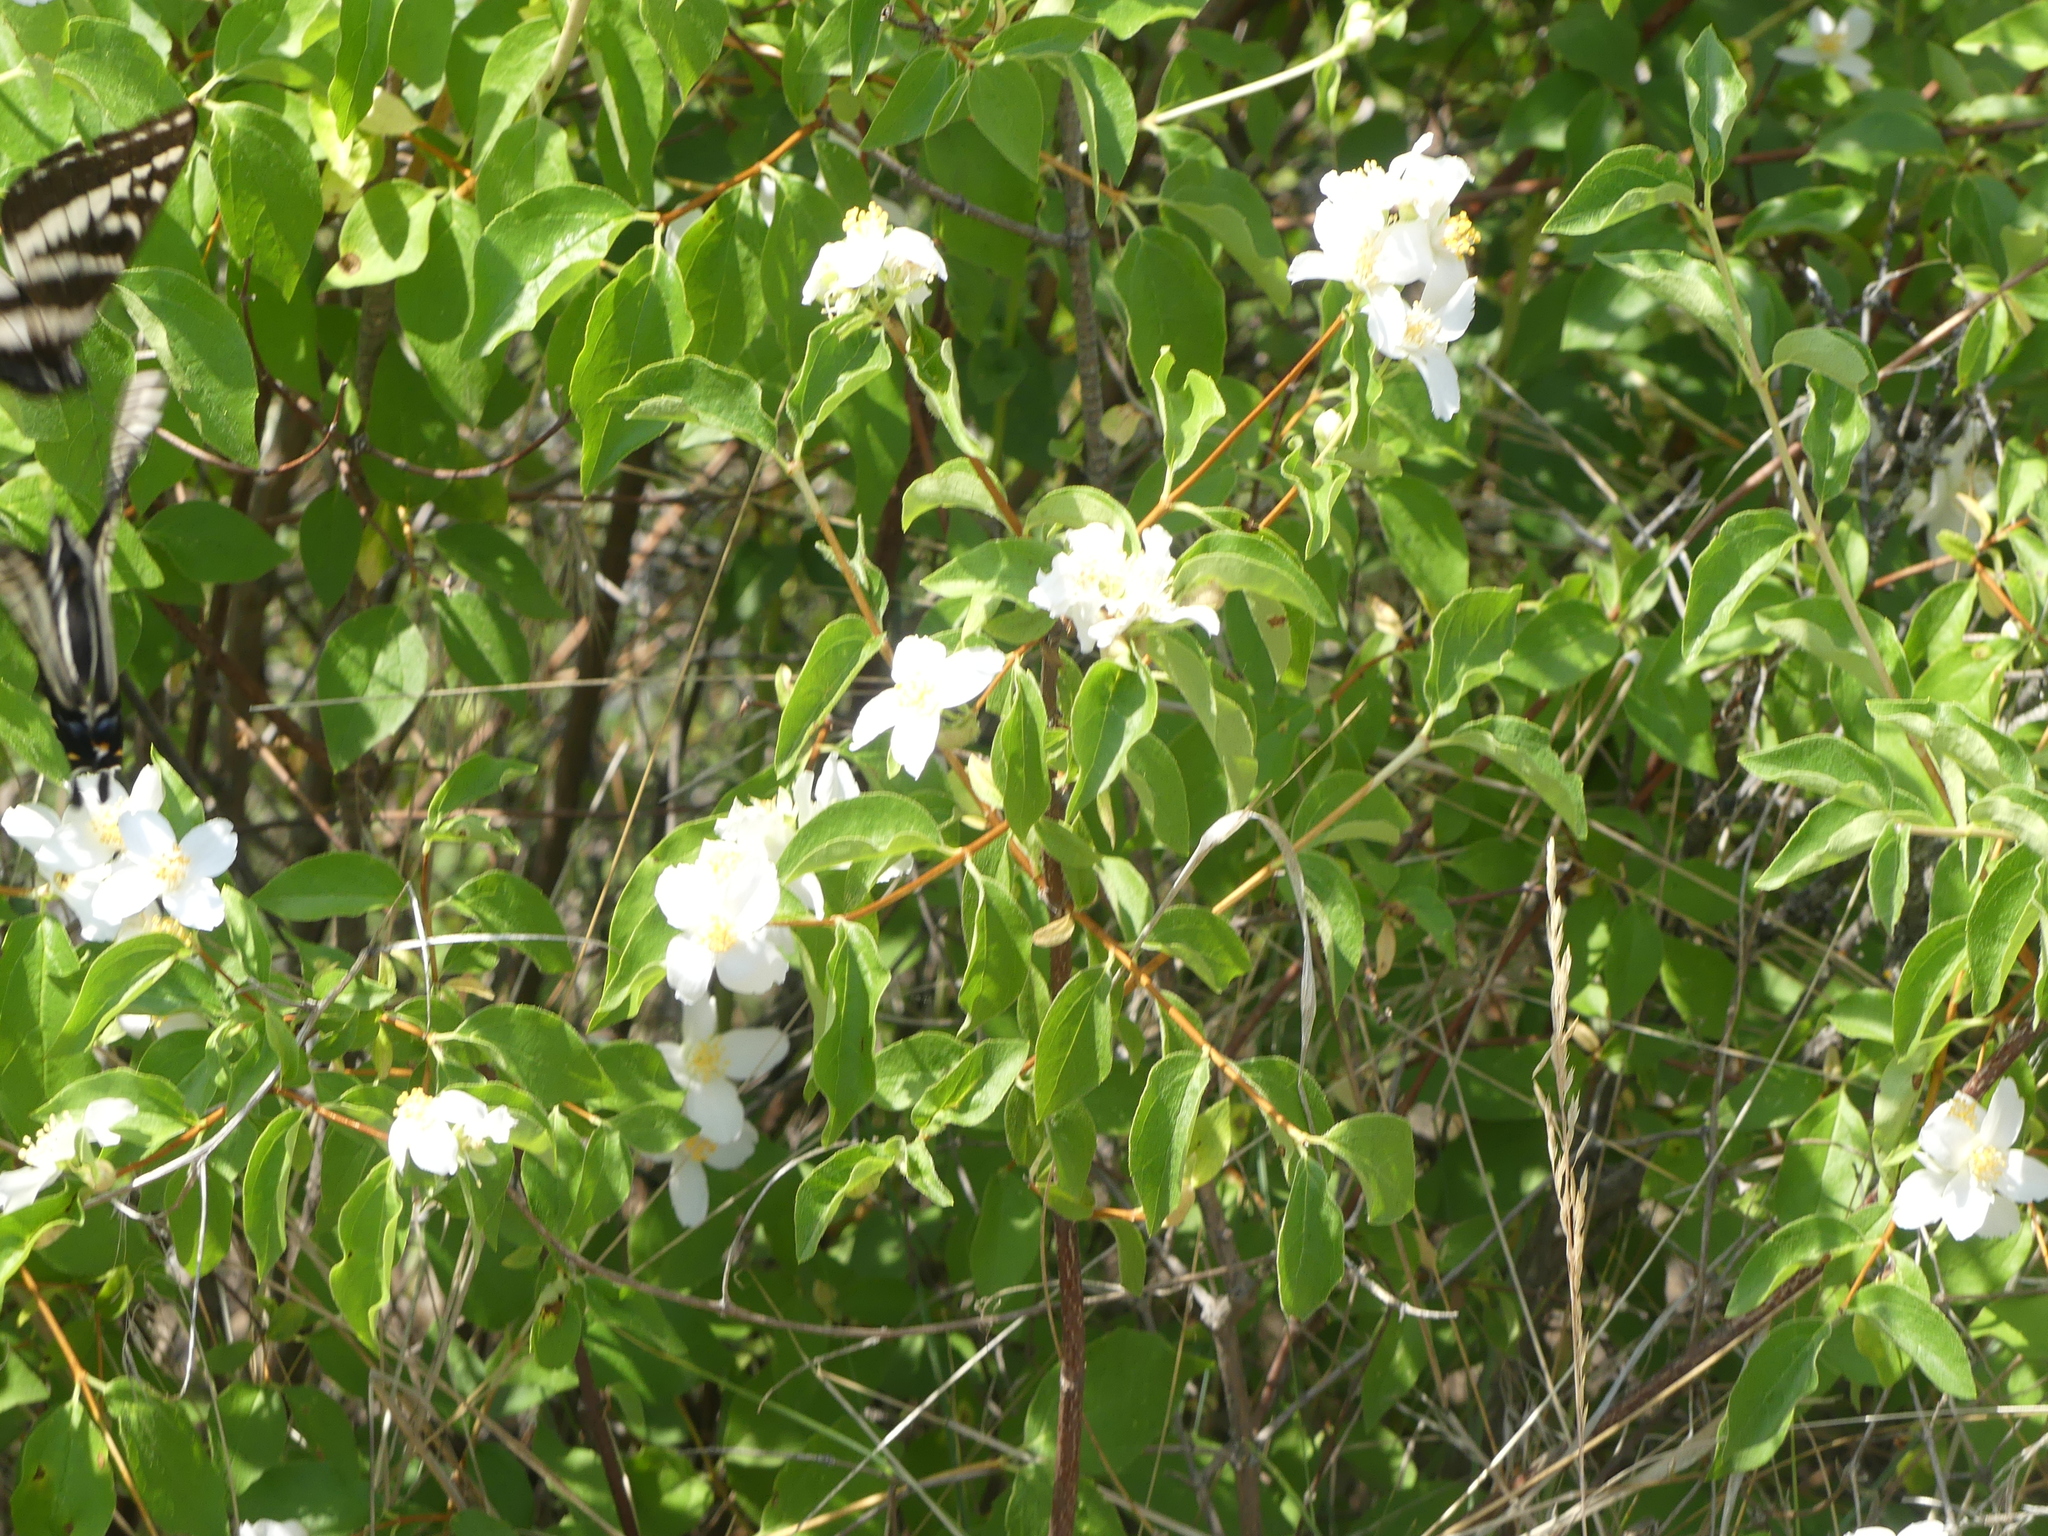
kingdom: Plantae
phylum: Tracheophyta
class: Magnoliopsida
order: Cornales
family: Hydrangeaceae
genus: Philadelphus
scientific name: Philadelphus lewisii
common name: Lewis's mock orange
